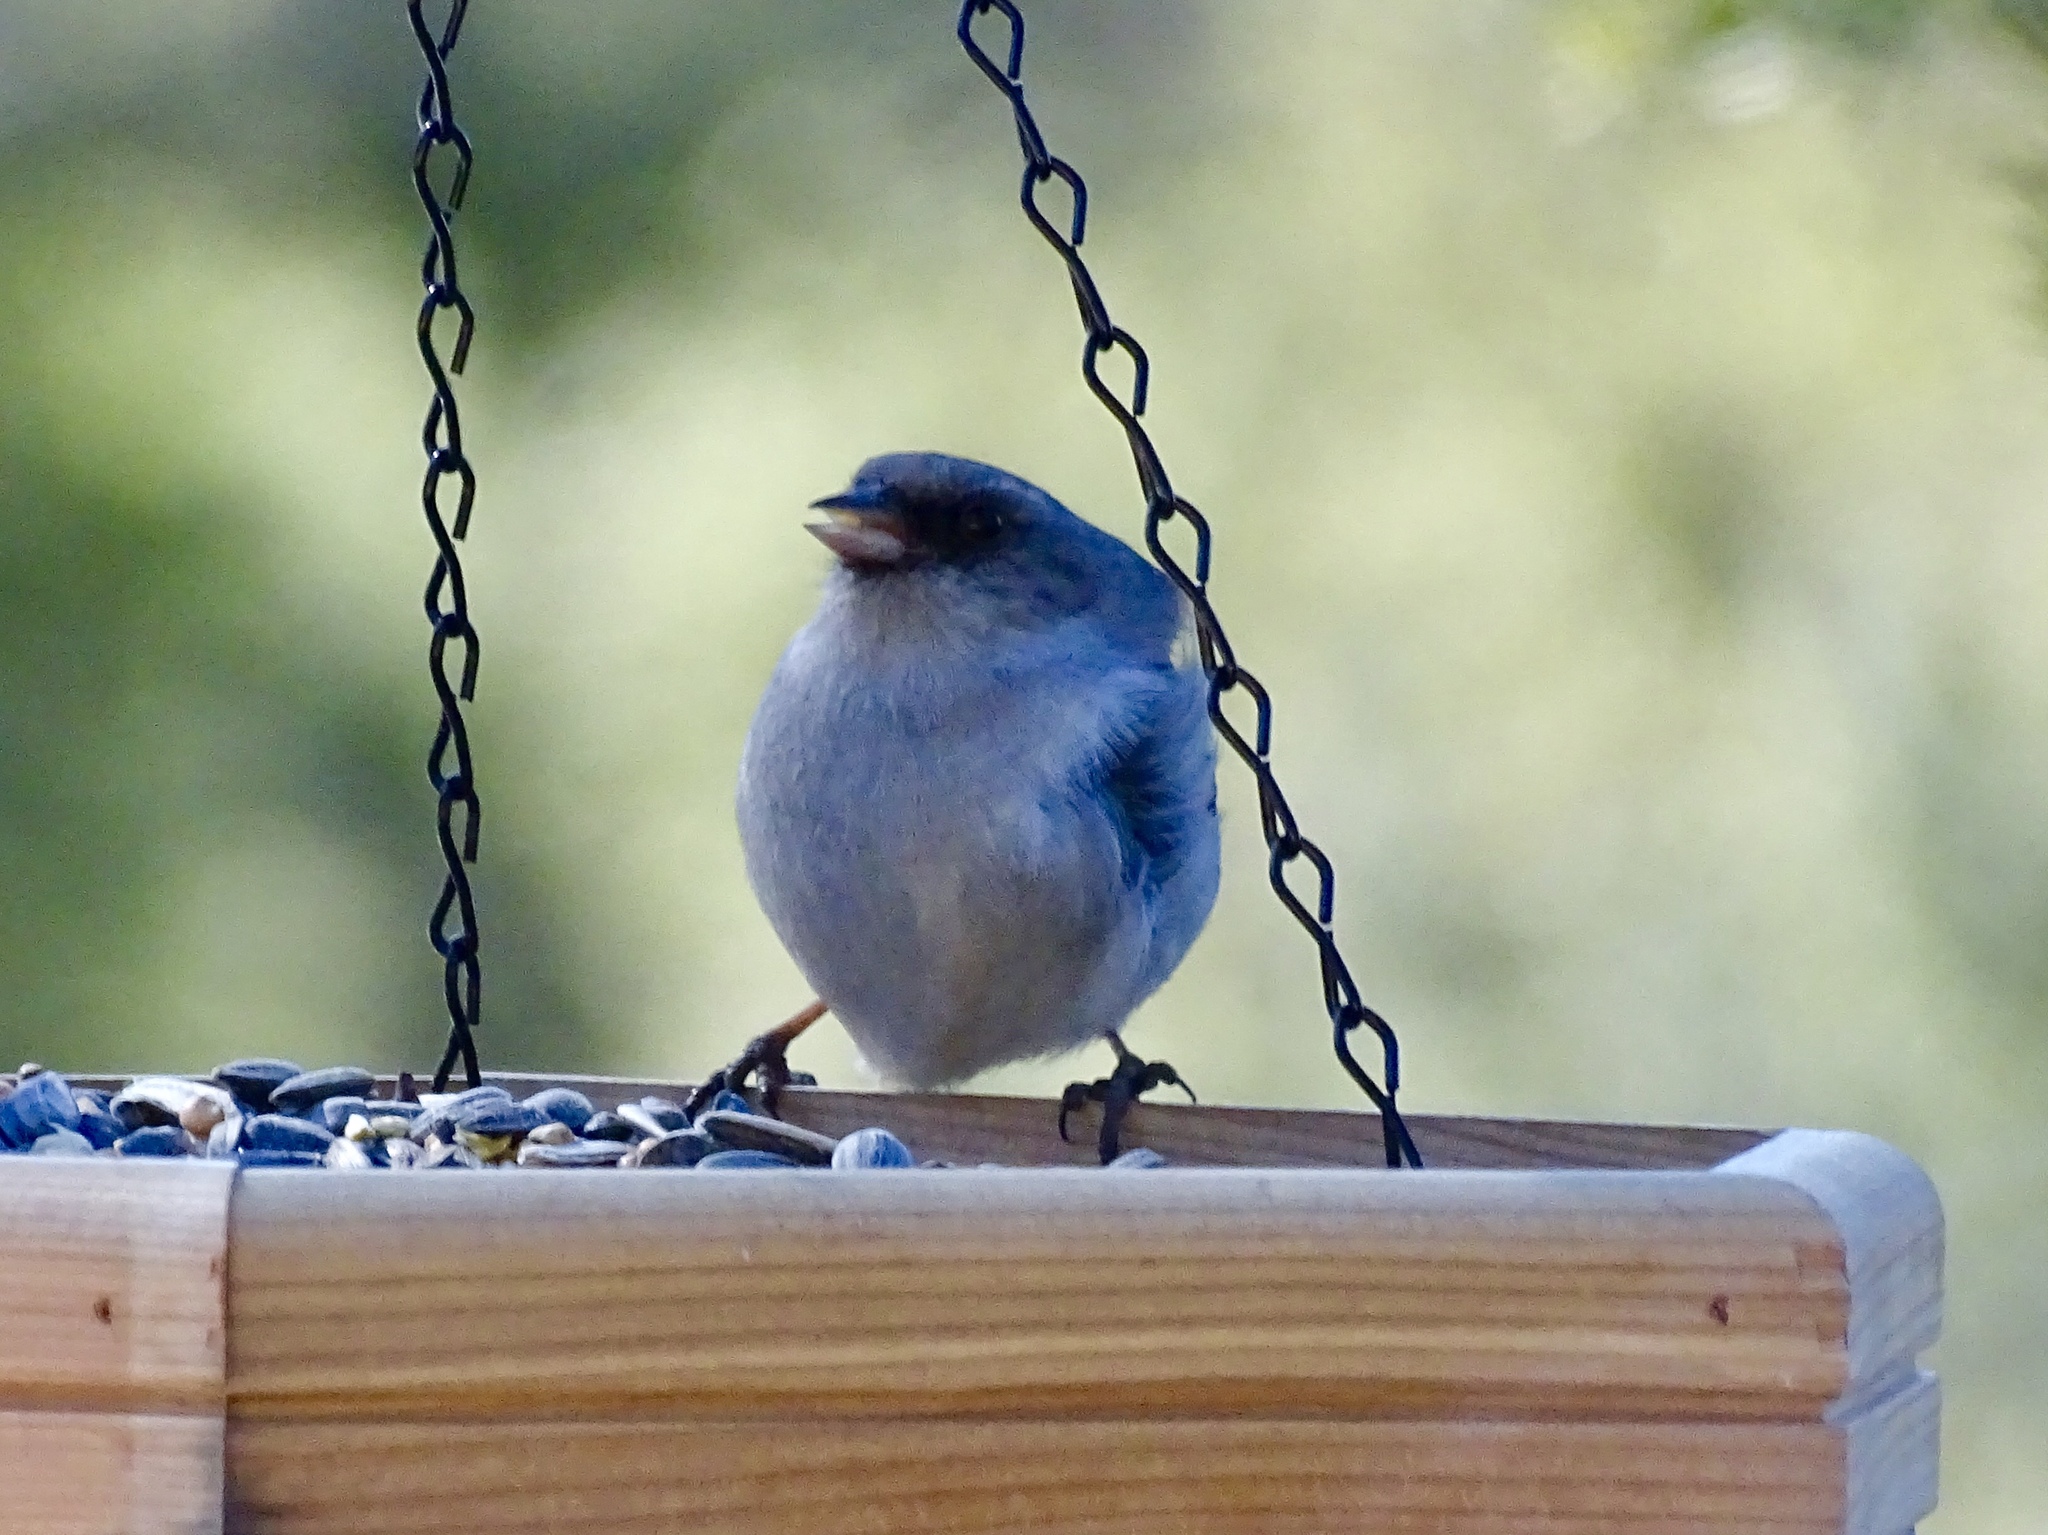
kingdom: Animalia
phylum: Chordata
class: Aves
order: Passeriformes
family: Passerellidae
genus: Junco
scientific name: Junco hyemalis
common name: Dark-eyed junco
